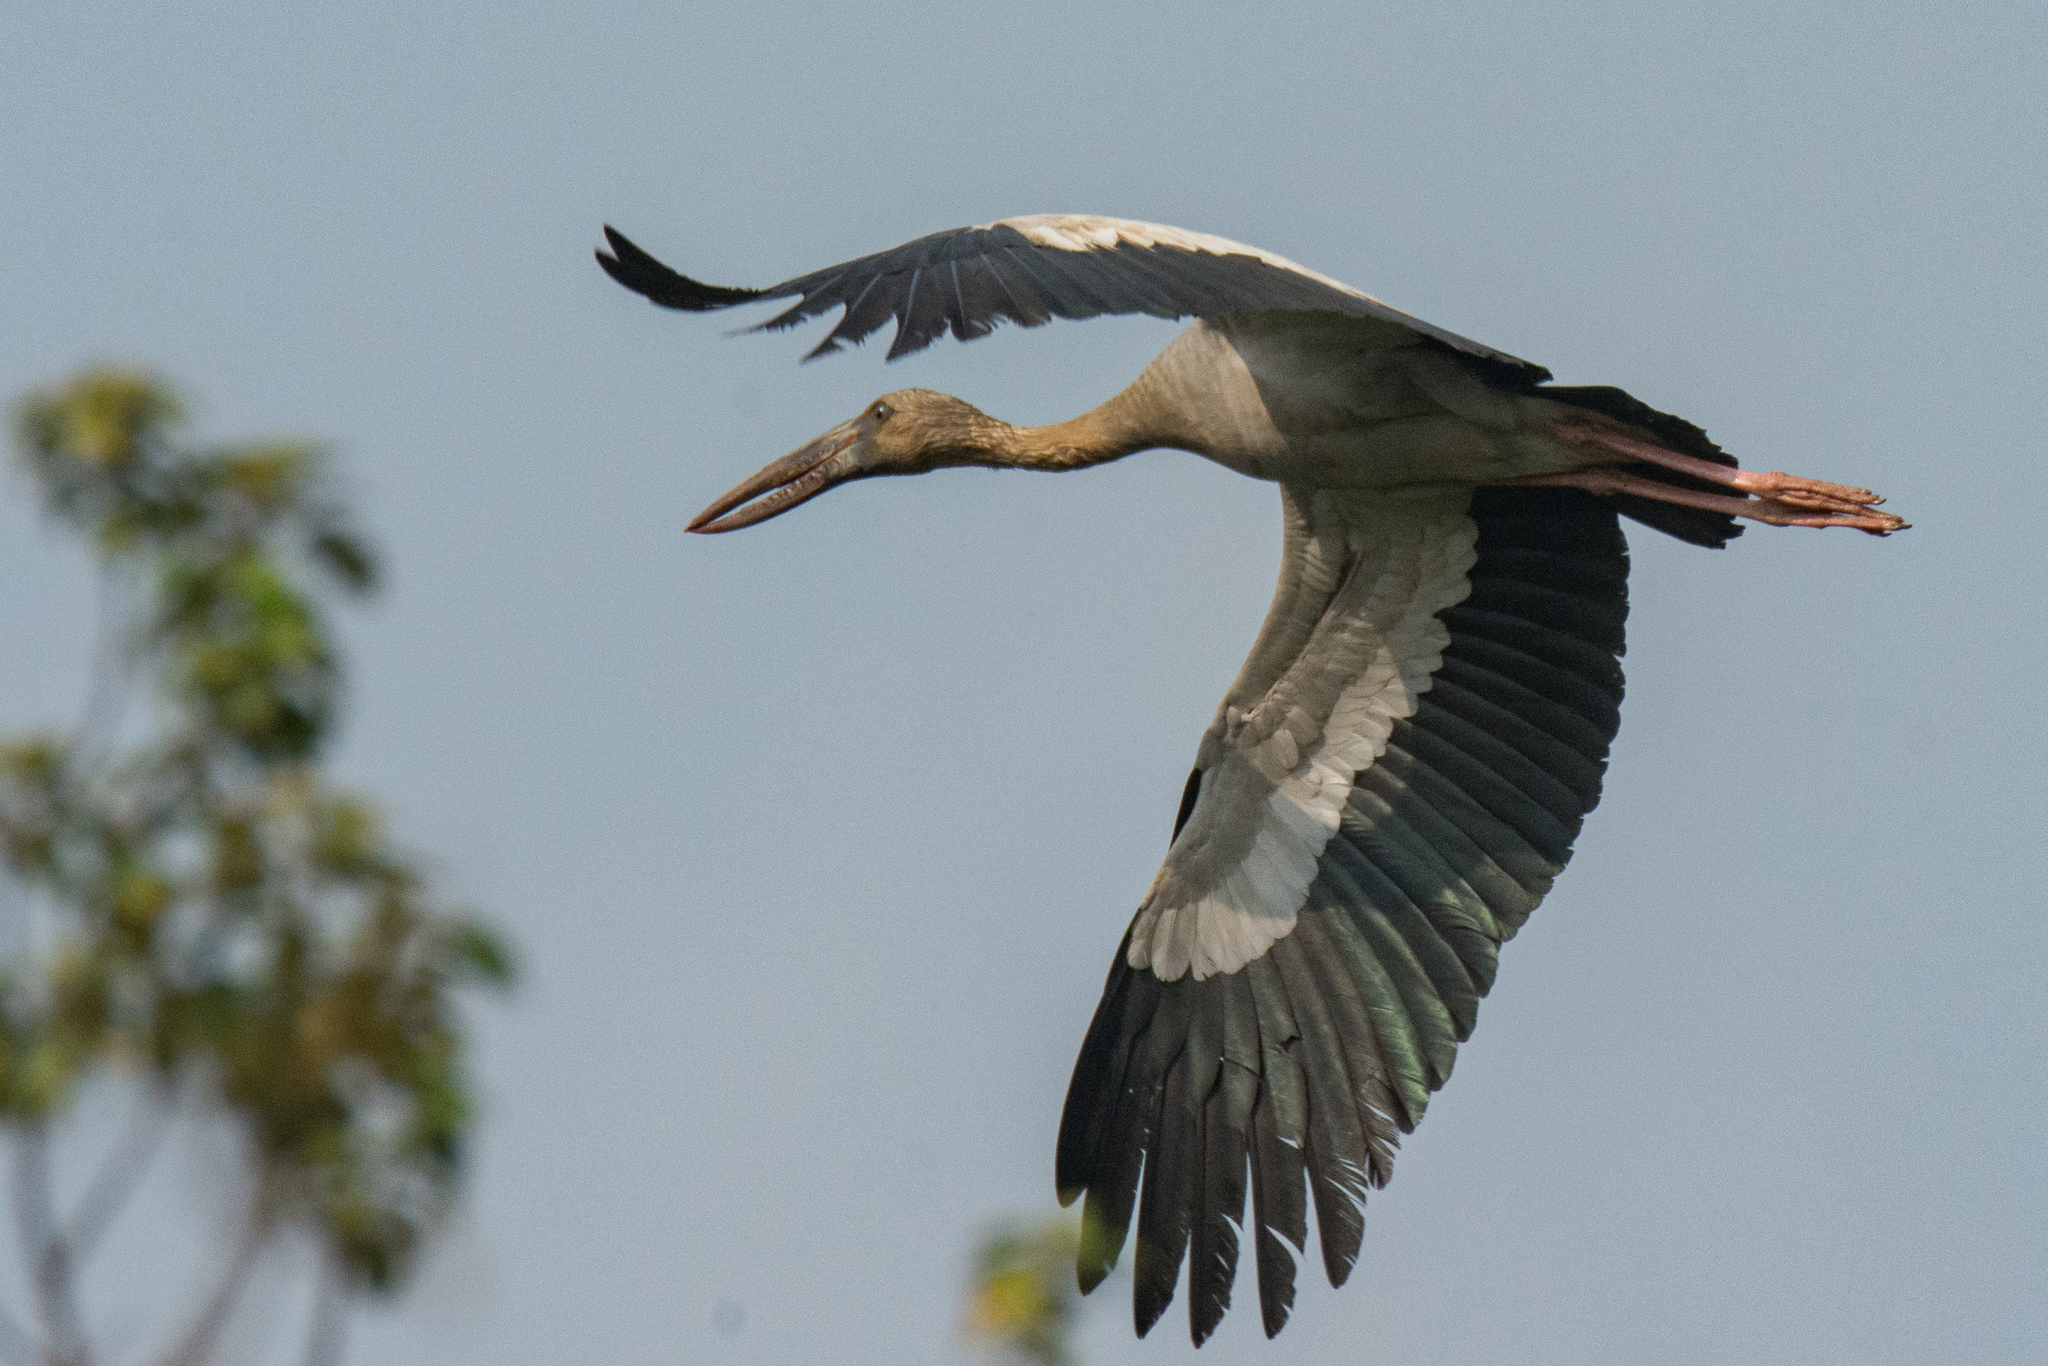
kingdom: Animalia
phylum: Chordata
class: Aves
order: Ciconiiformes
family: Ciconiidae
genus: Anastomus
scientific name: Anastomus oscitans
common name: Asian openbill
